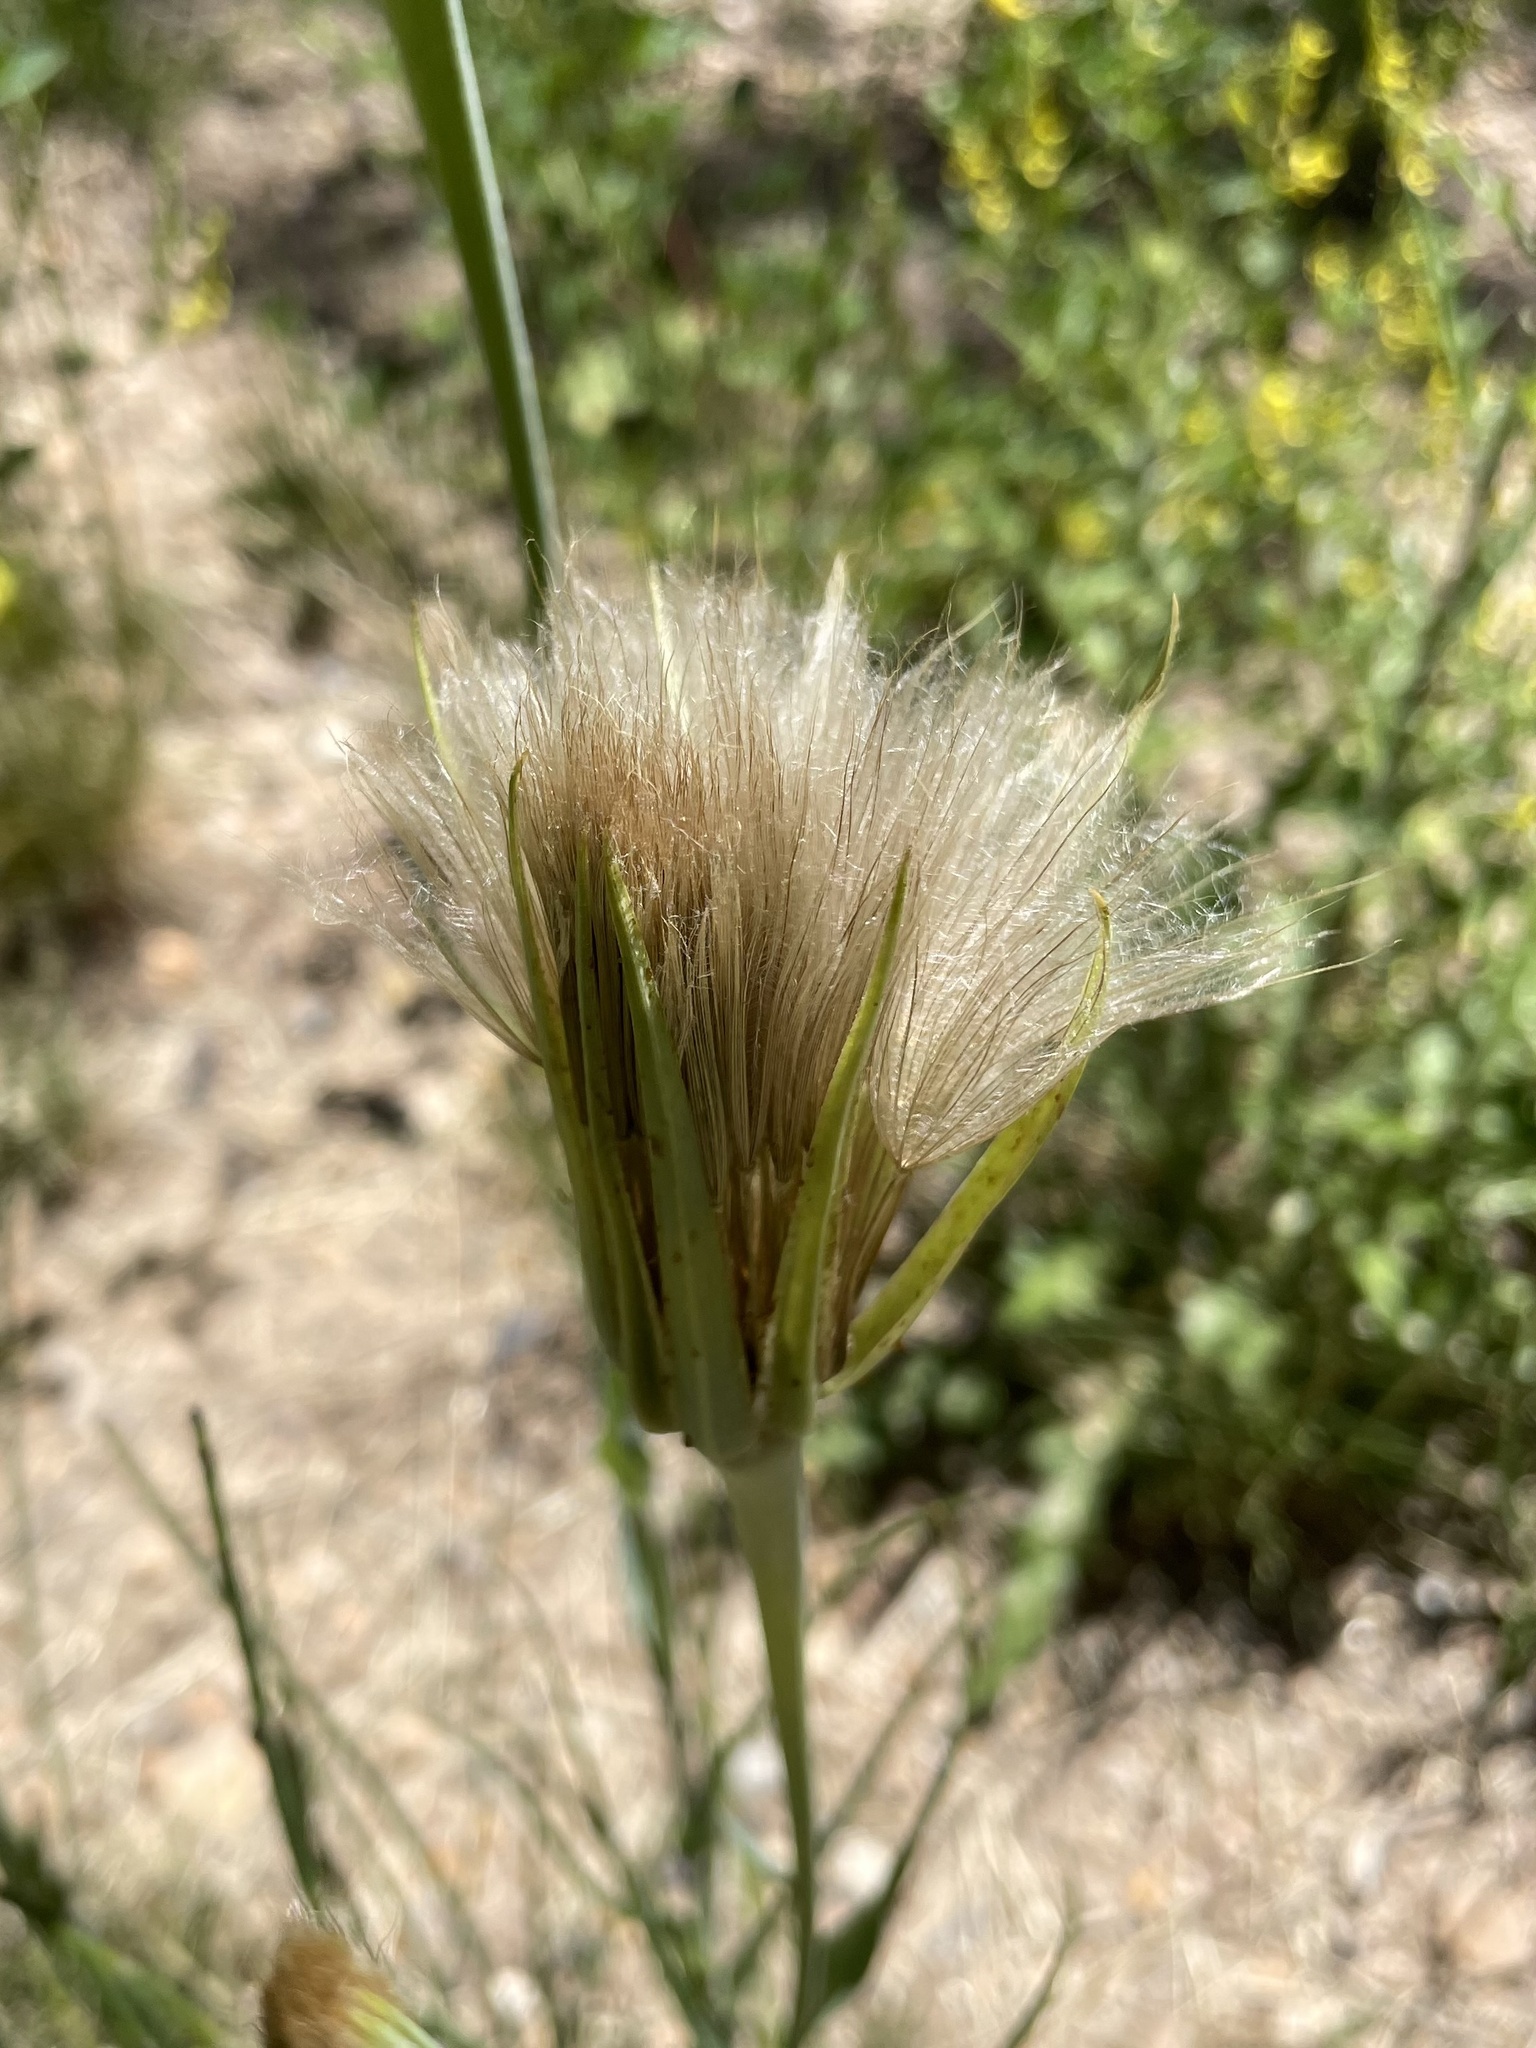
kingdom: Plantae
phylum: Tracheophyta
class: Magnoliopsida
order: Asterales
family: Asteraceae
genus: Tragopogon
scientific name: Tragopogon dubius
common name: Yellow salsify
